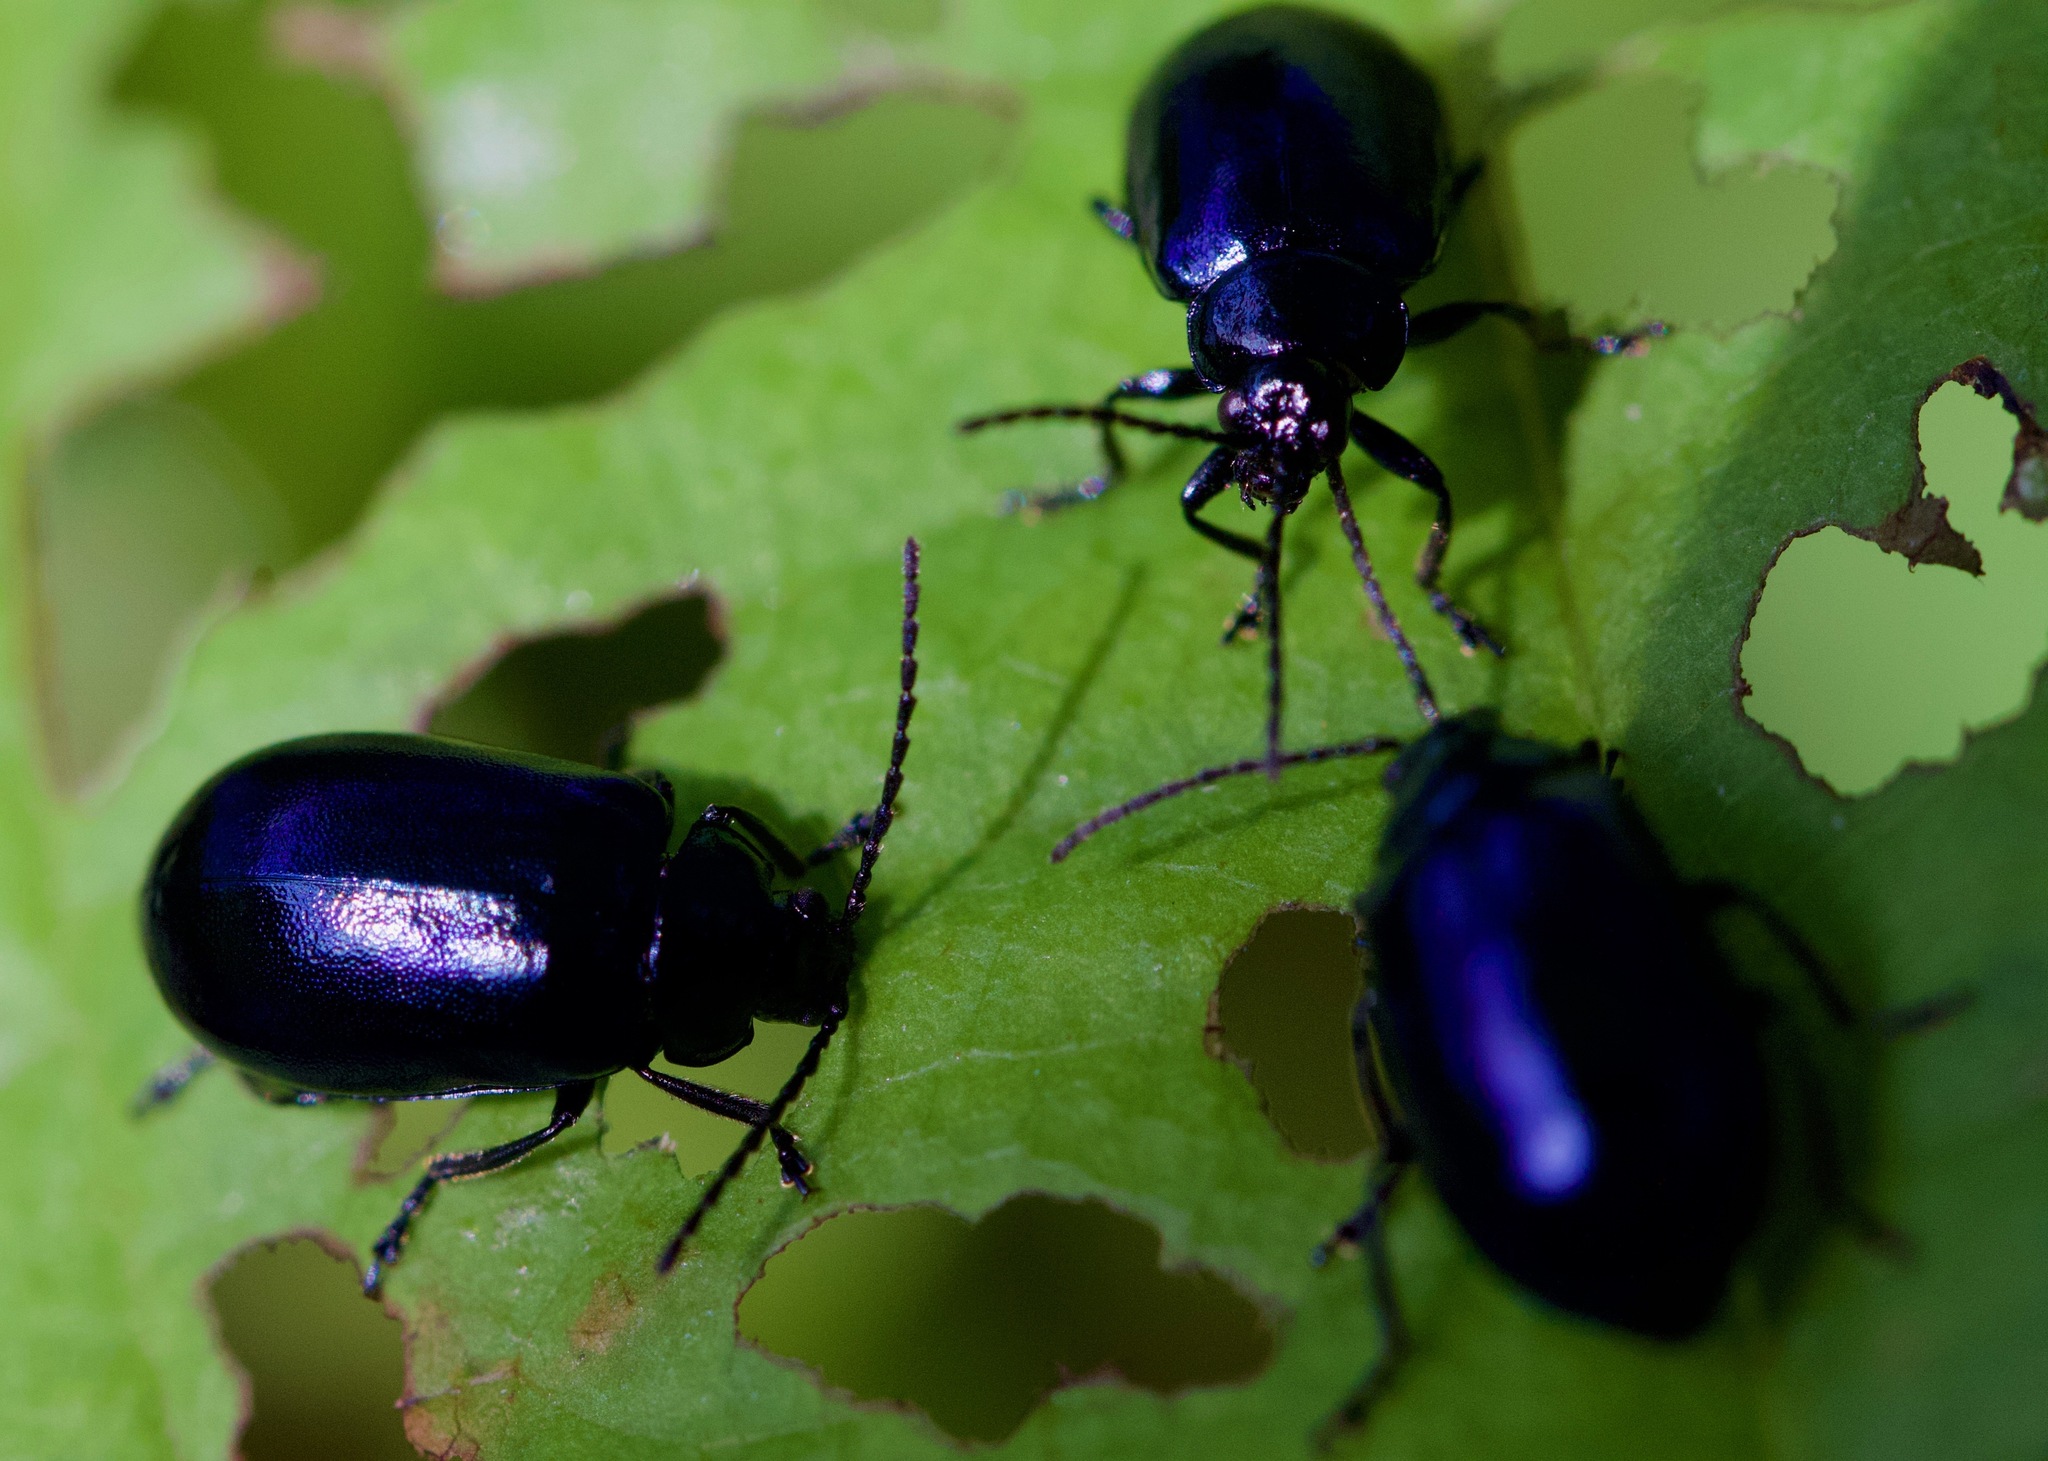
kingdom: Animalia
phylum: Arthropoda
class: Insecta
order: Coleoptera
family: Chrysomelidae
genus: Agelastica
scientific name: Agelastica alni
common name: Alder leaf beetle
